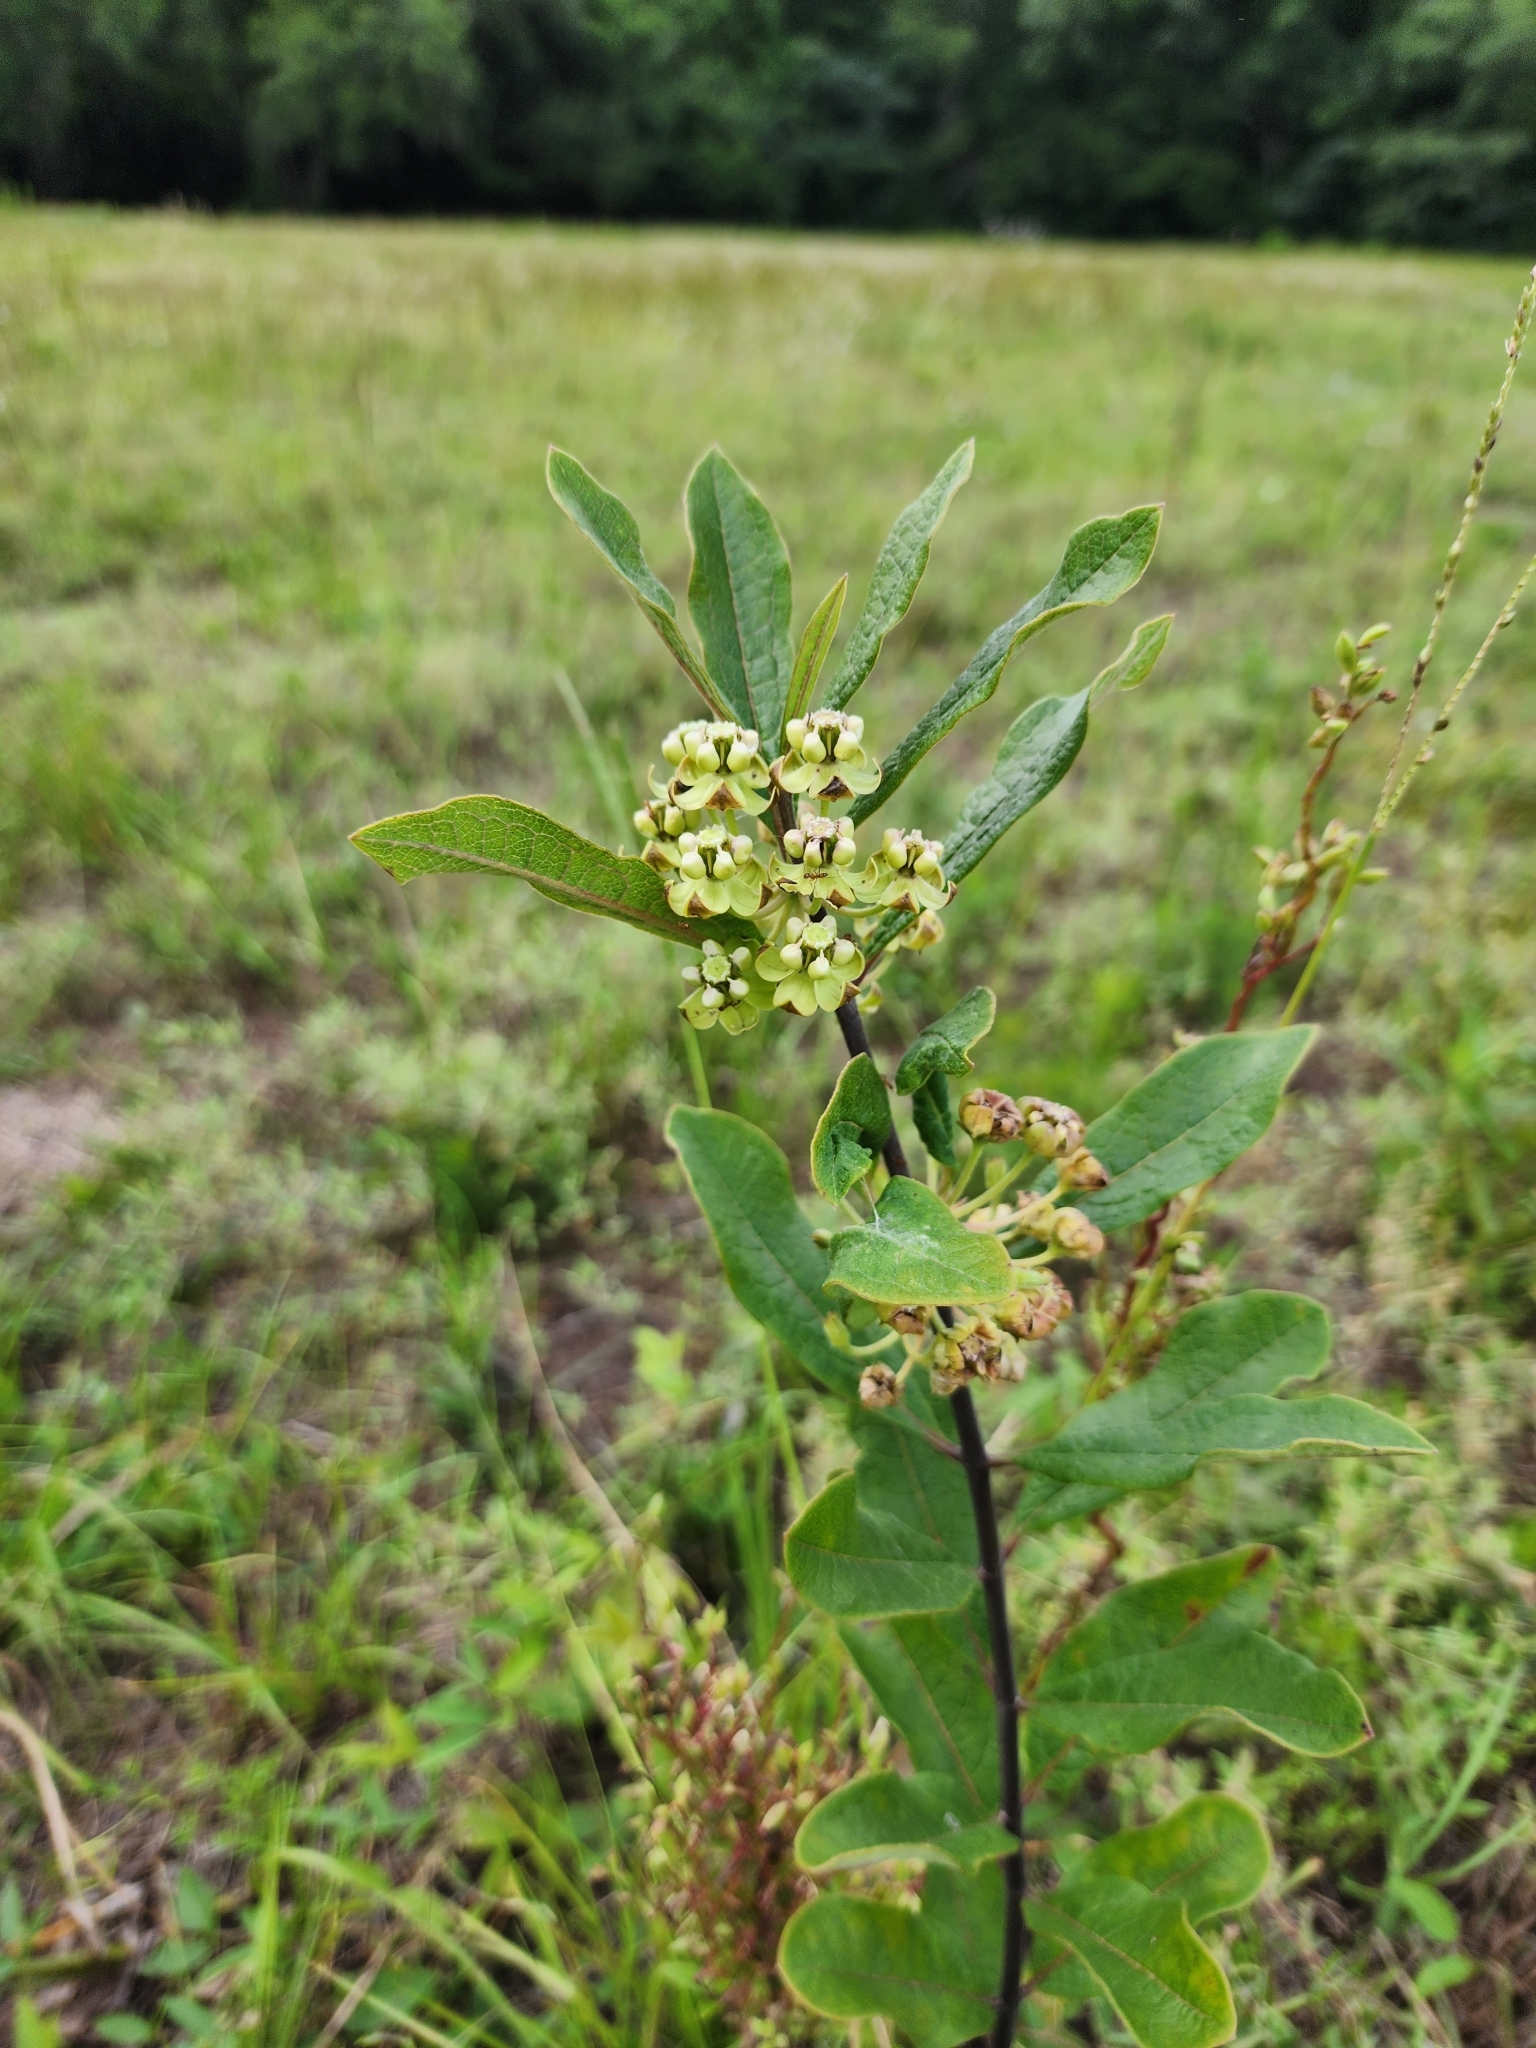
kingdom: Plantae
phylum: Tracheophyta
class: Magnoliopsida
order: Gentianales
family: Apocynaceae
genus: Asclepias
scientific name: Asclepias tomentosa
